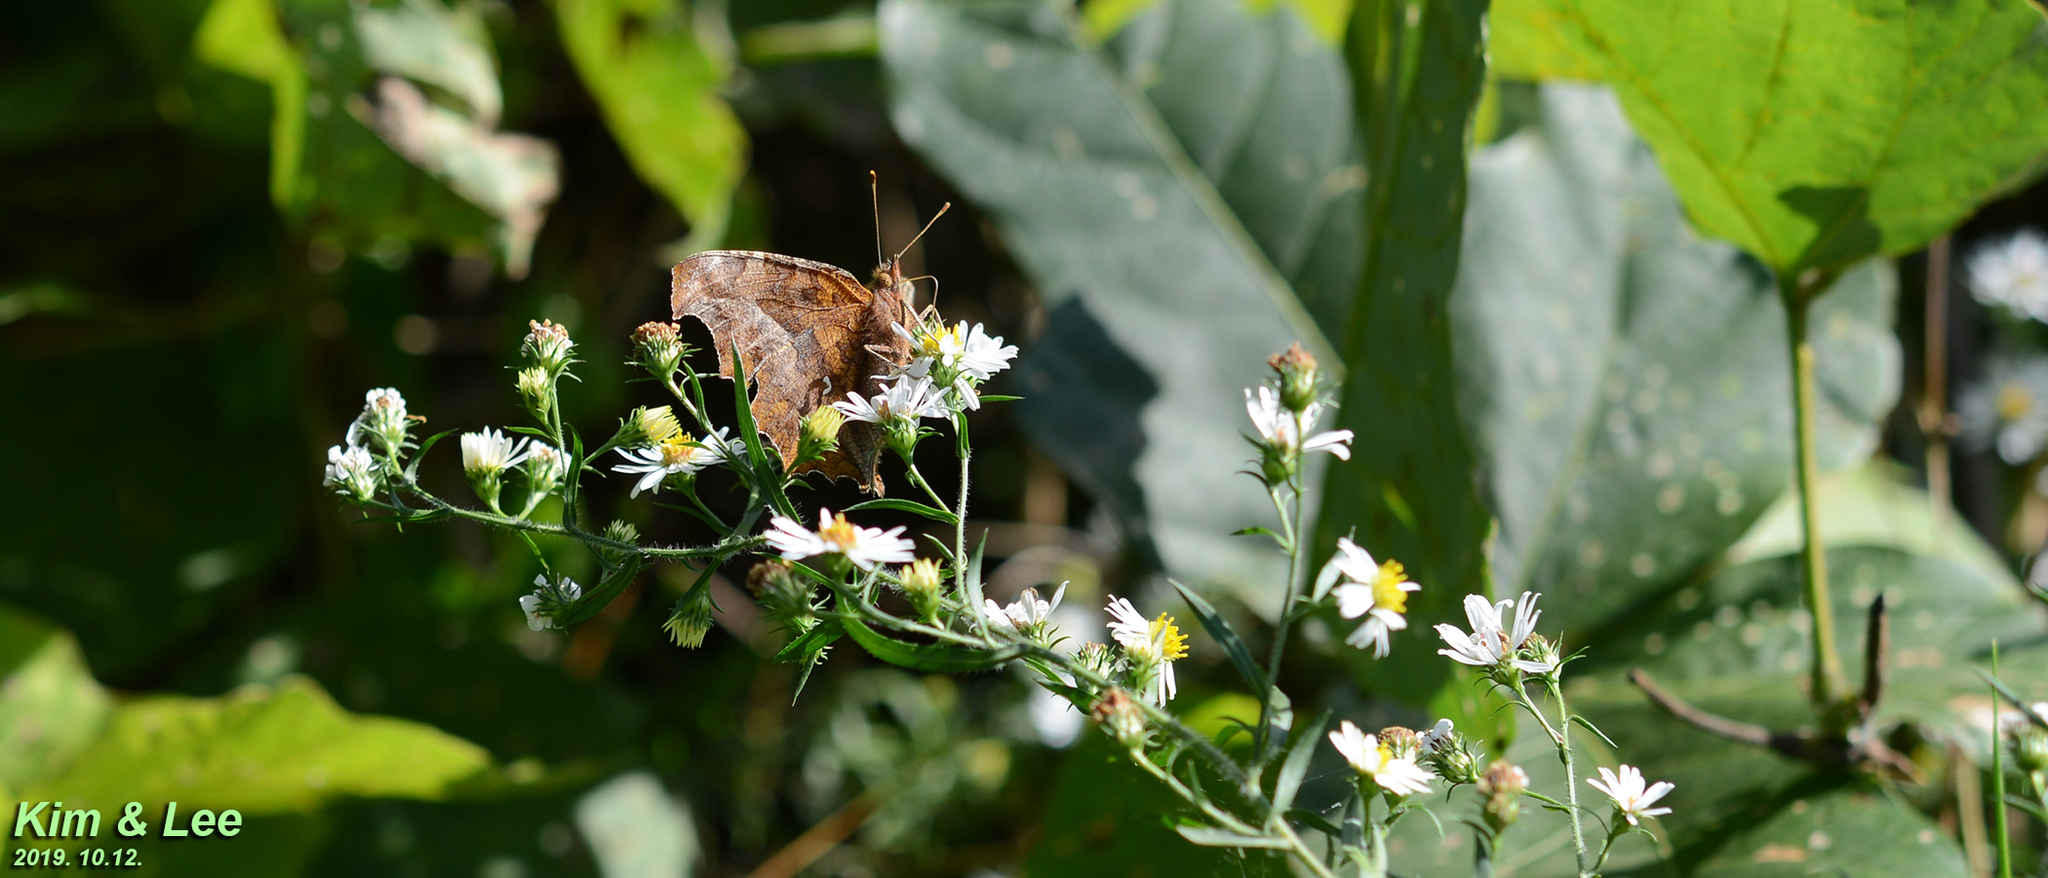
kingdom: Animalia
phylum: Arthropoda
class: Insecta
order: Lepidoptera
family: Nymphalidae
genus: Polygonia
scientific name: Polygonia c-aureum
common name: Asian comma
